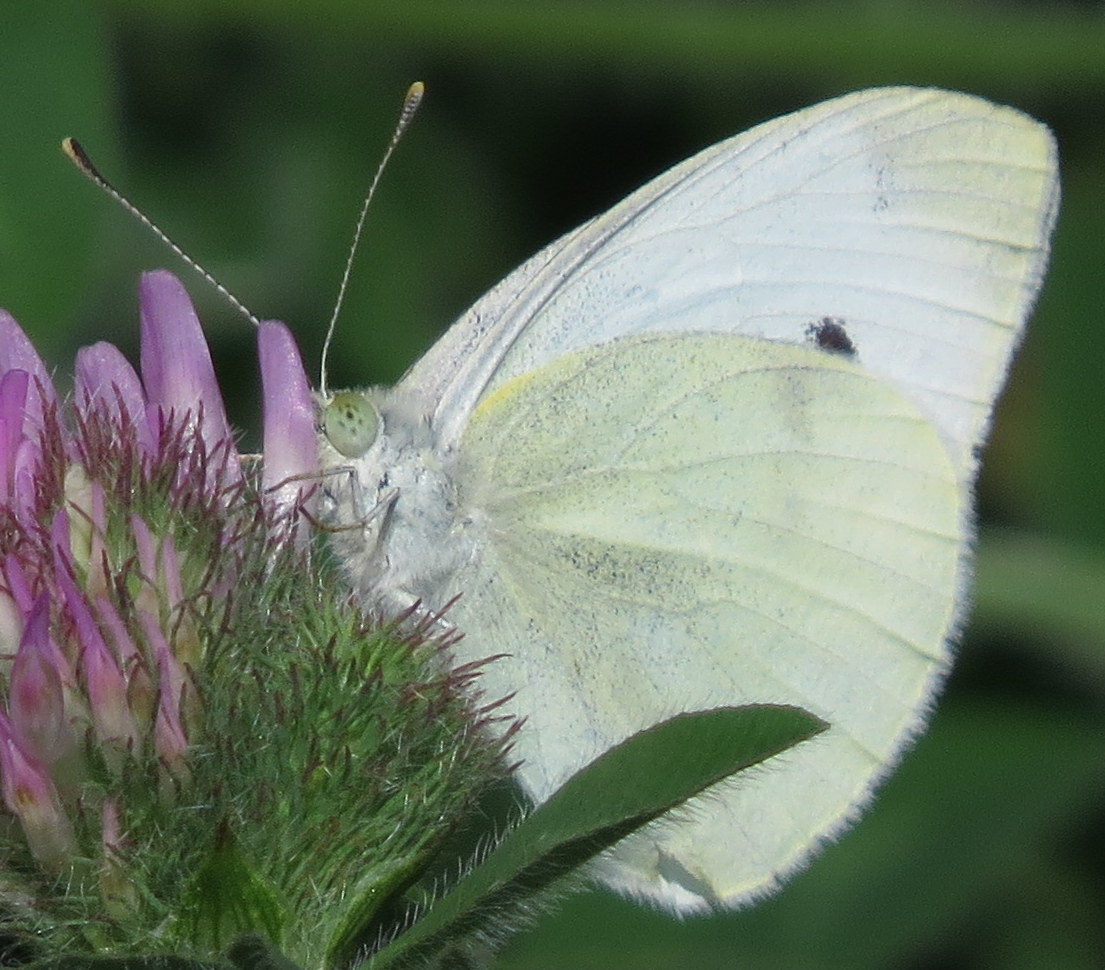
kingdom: Animalia
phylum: Arthropoda
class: Insecta
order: Lepidoptera
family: Pieridae
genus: Pieris
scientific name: Pieris rapae
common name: Small white
